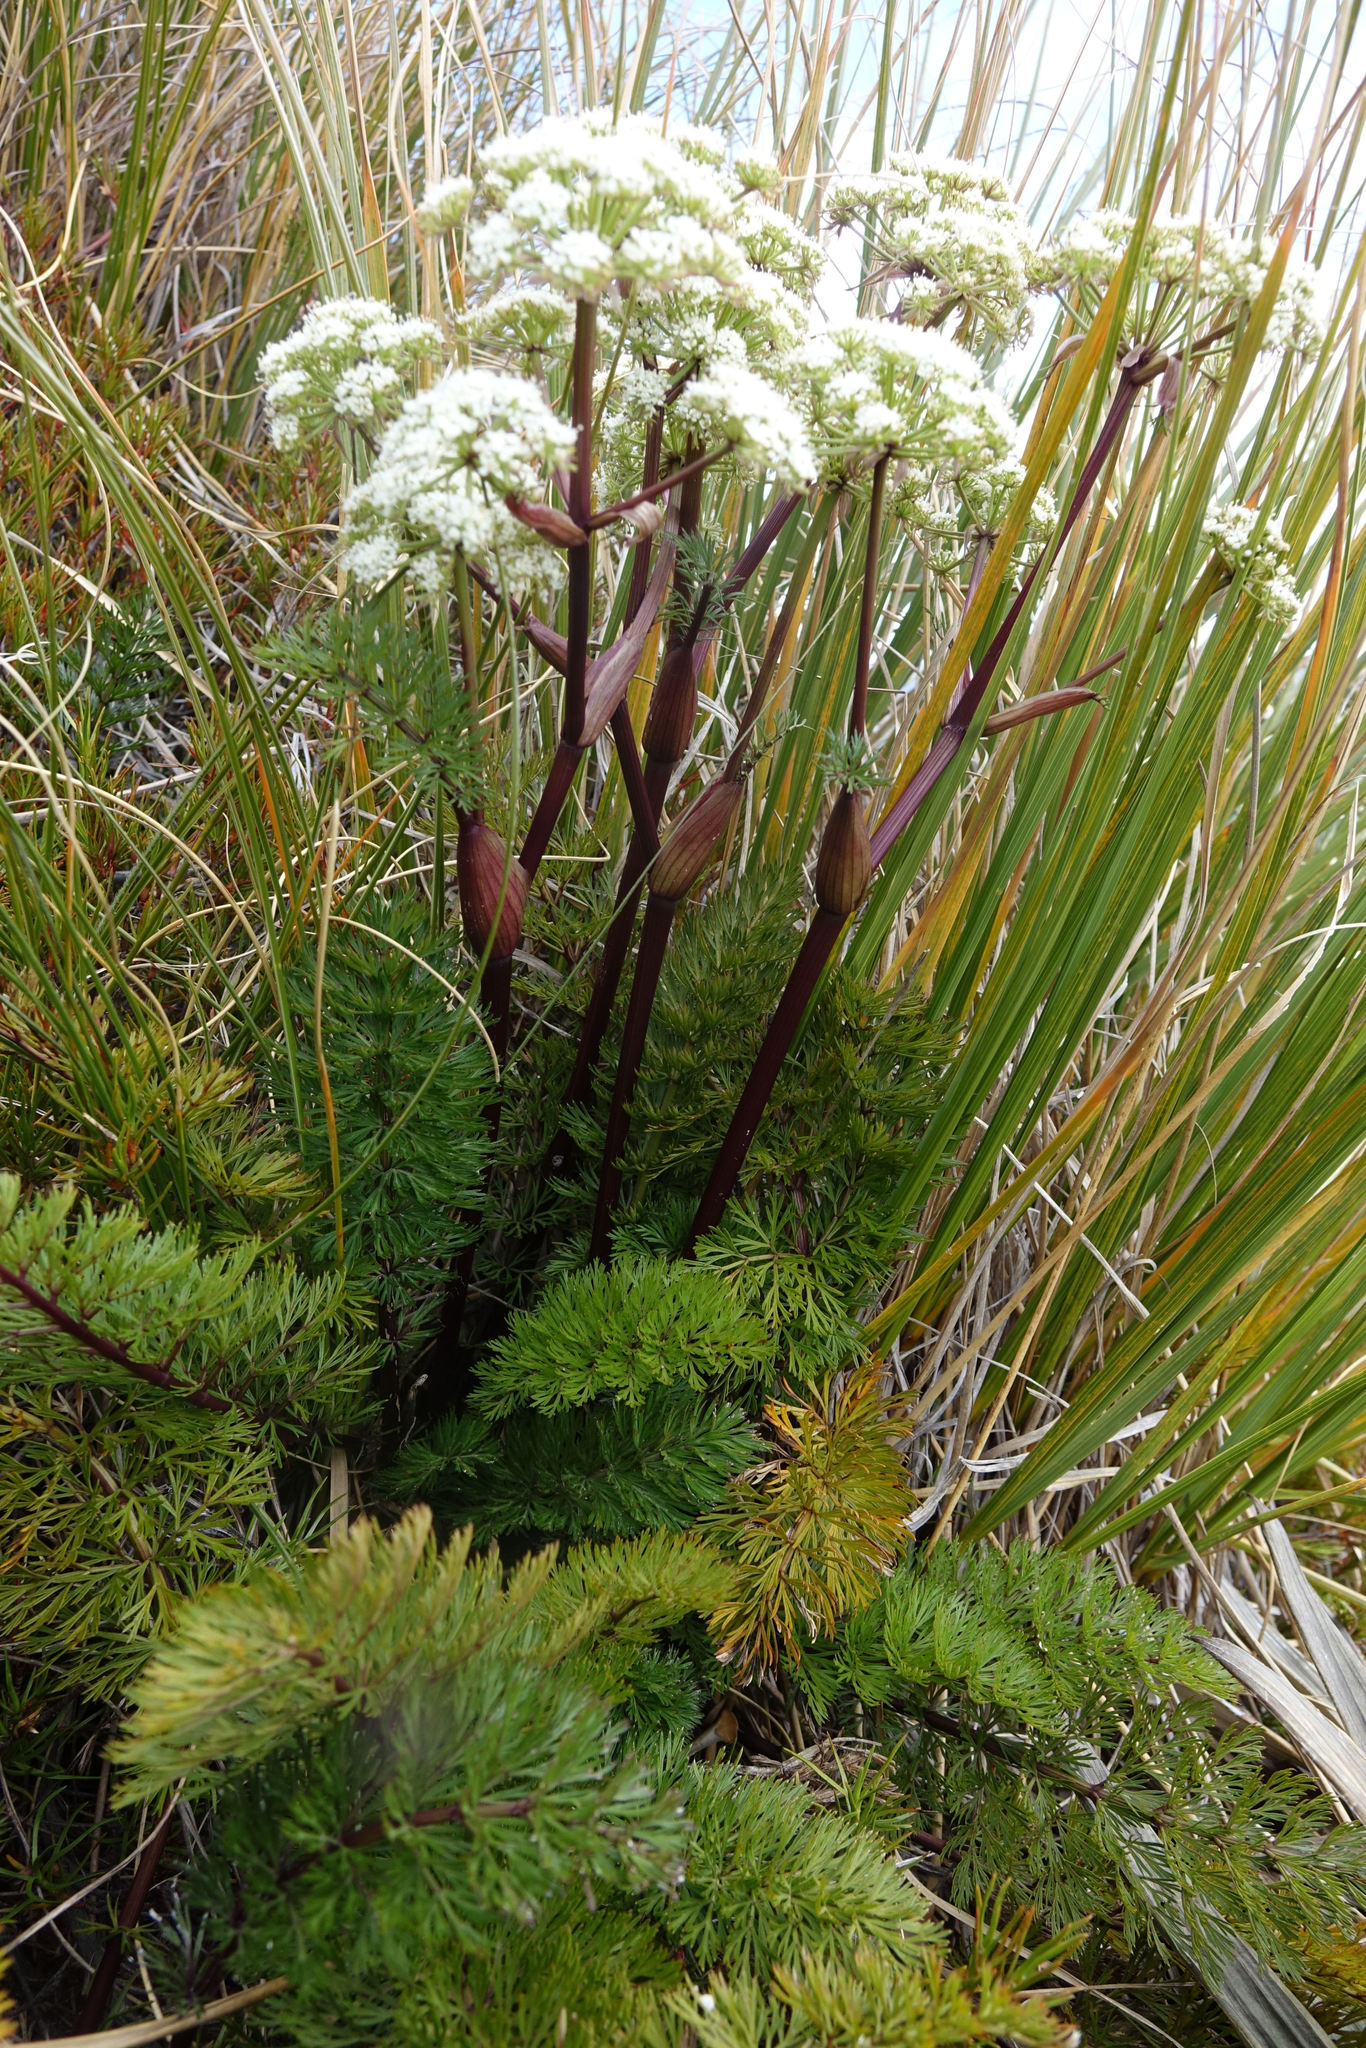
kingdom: Plantae
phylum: Tracheophyta
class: Magnoliopsida
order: Apiales
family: Apiaceae
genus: Anisotome
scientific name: Anisotome haastii
